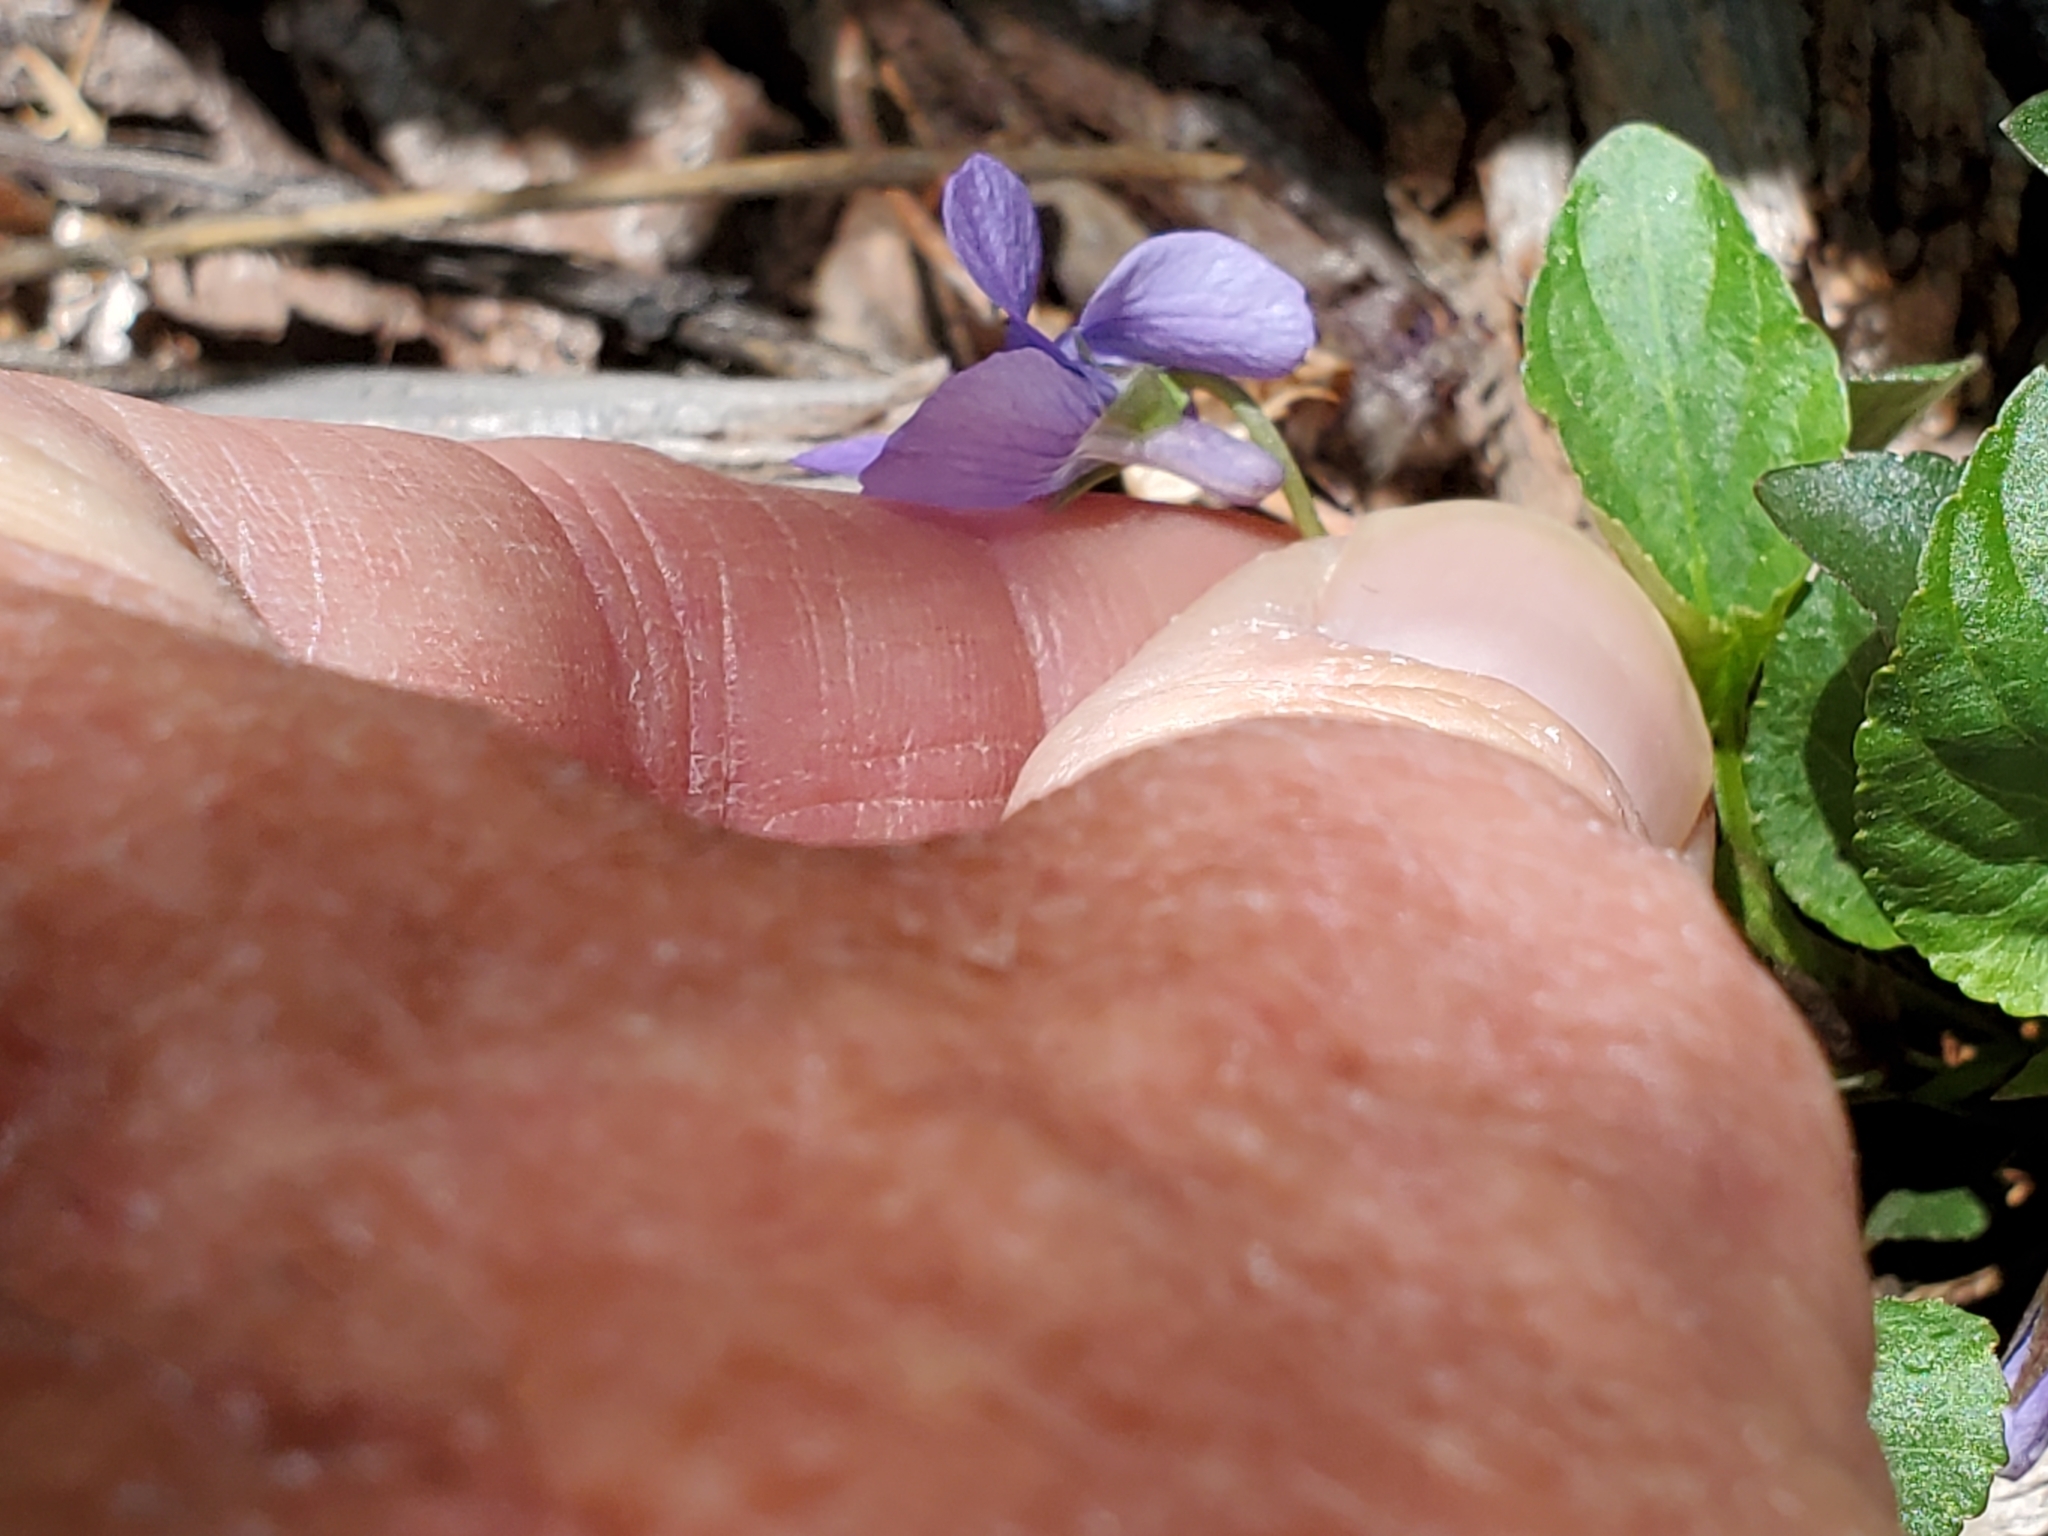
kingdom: Plantae
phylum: Tracheophyta
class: Magnoliopsida
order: Malpighiales
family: Violaceae
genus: Viola
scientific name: Viola adunca
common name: Sand violet
